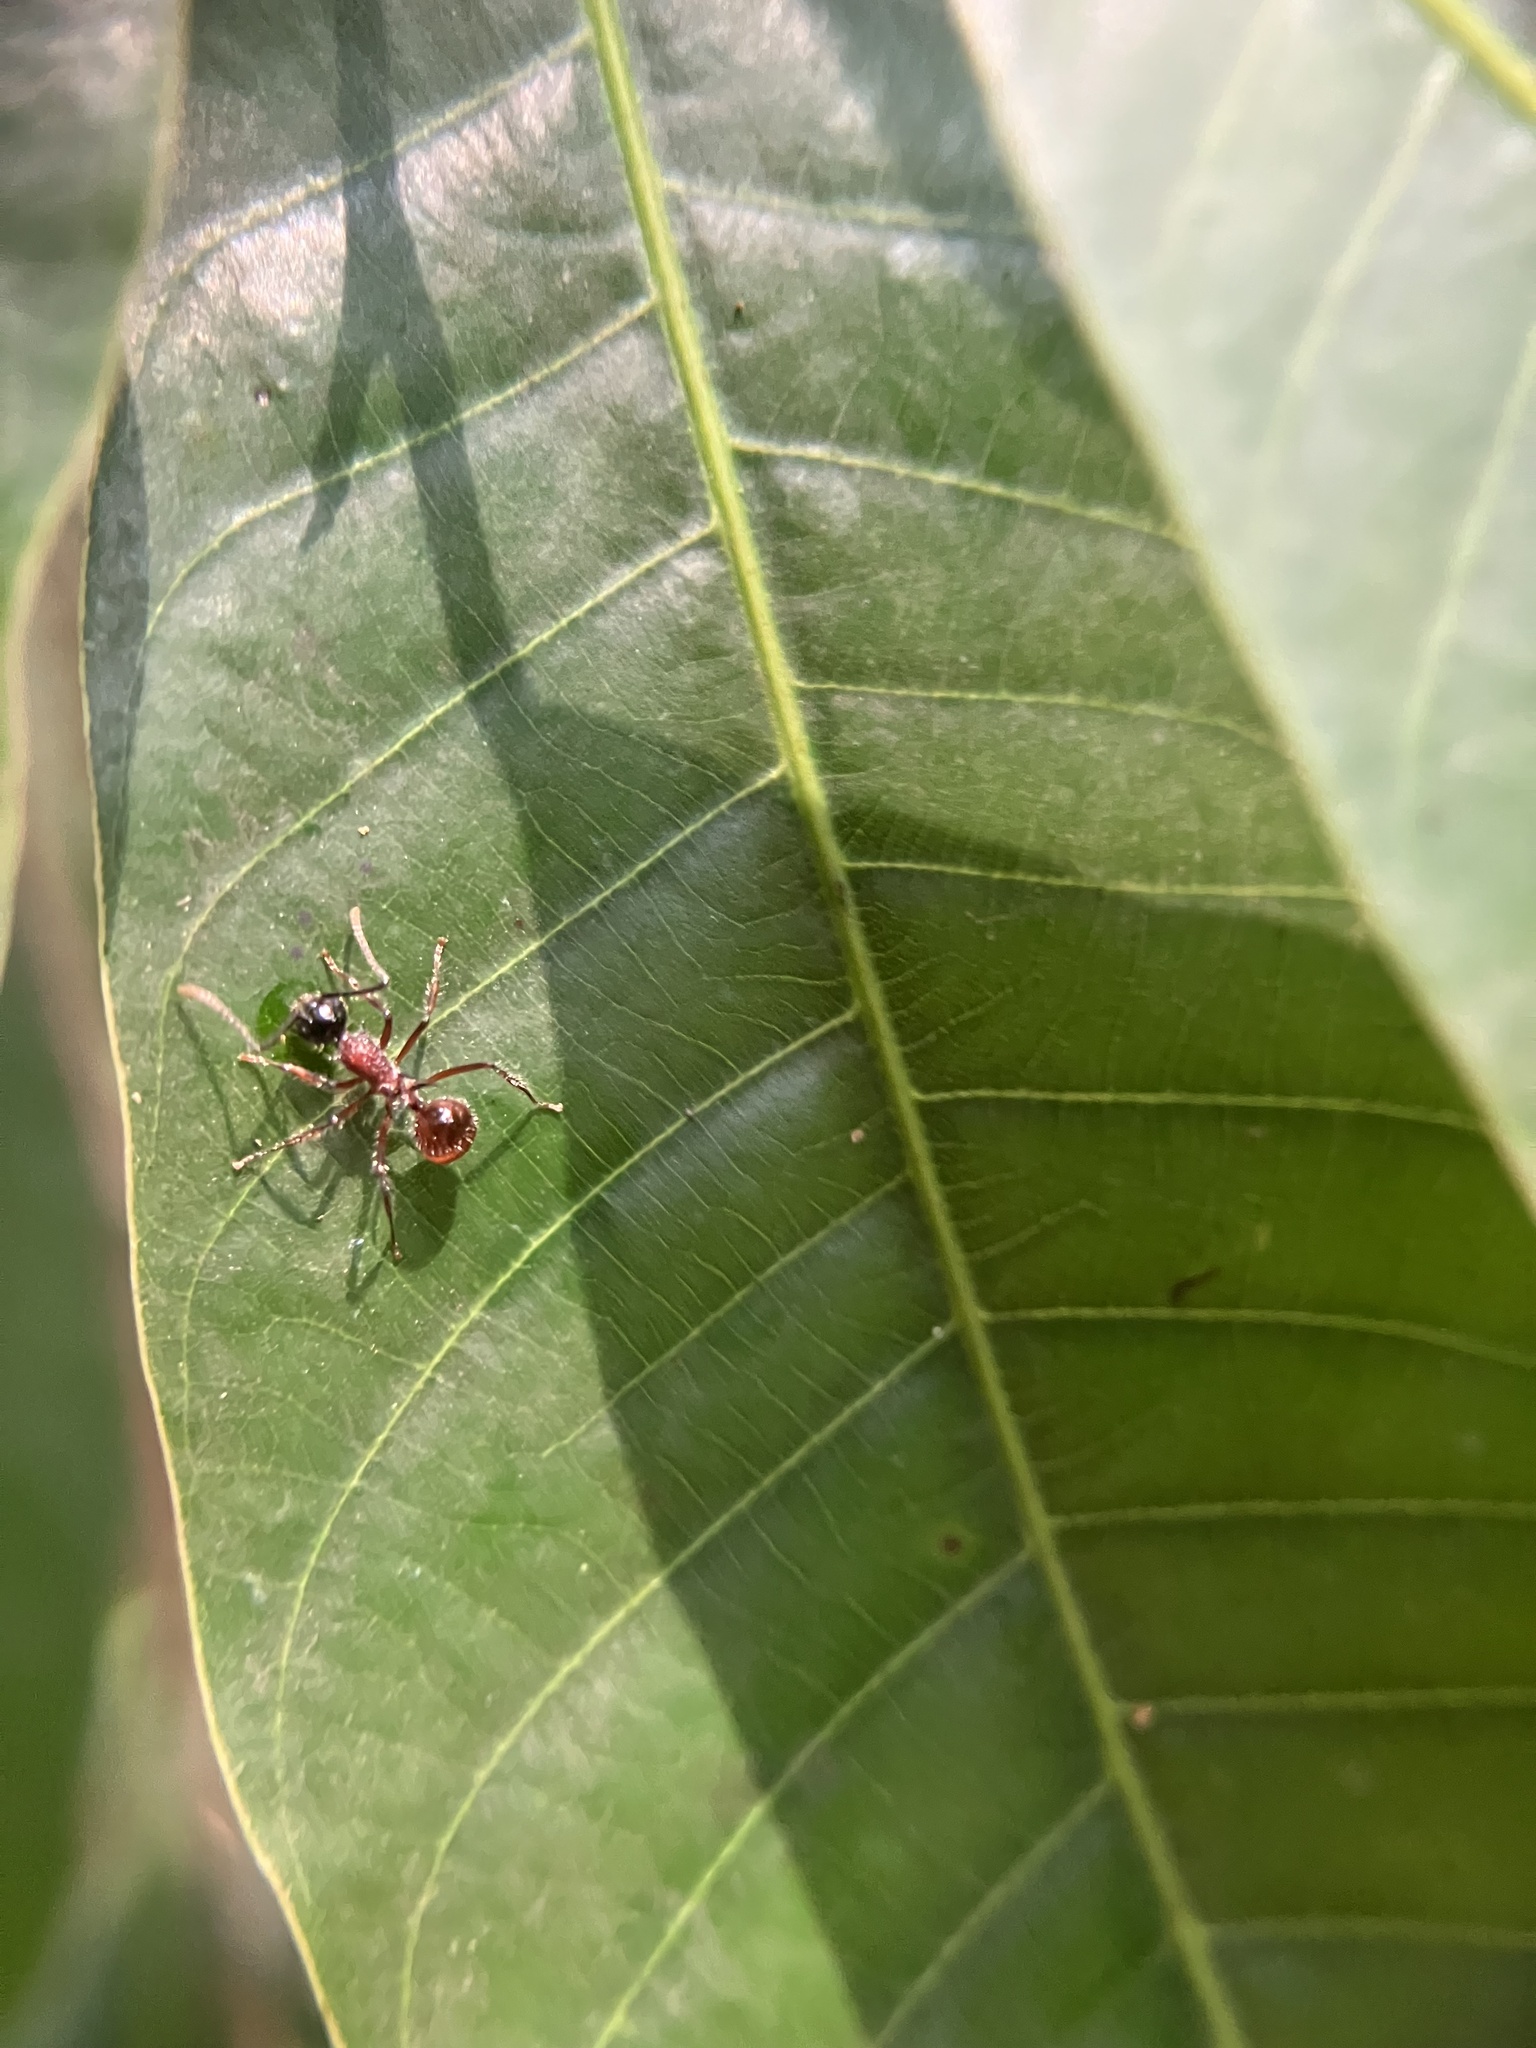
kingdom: Animalia
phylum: Arthropoda
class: Insecta
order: Hymenoptera
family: Formicidae
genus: Polyrhachis
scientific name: Polyrhachis gracilior
